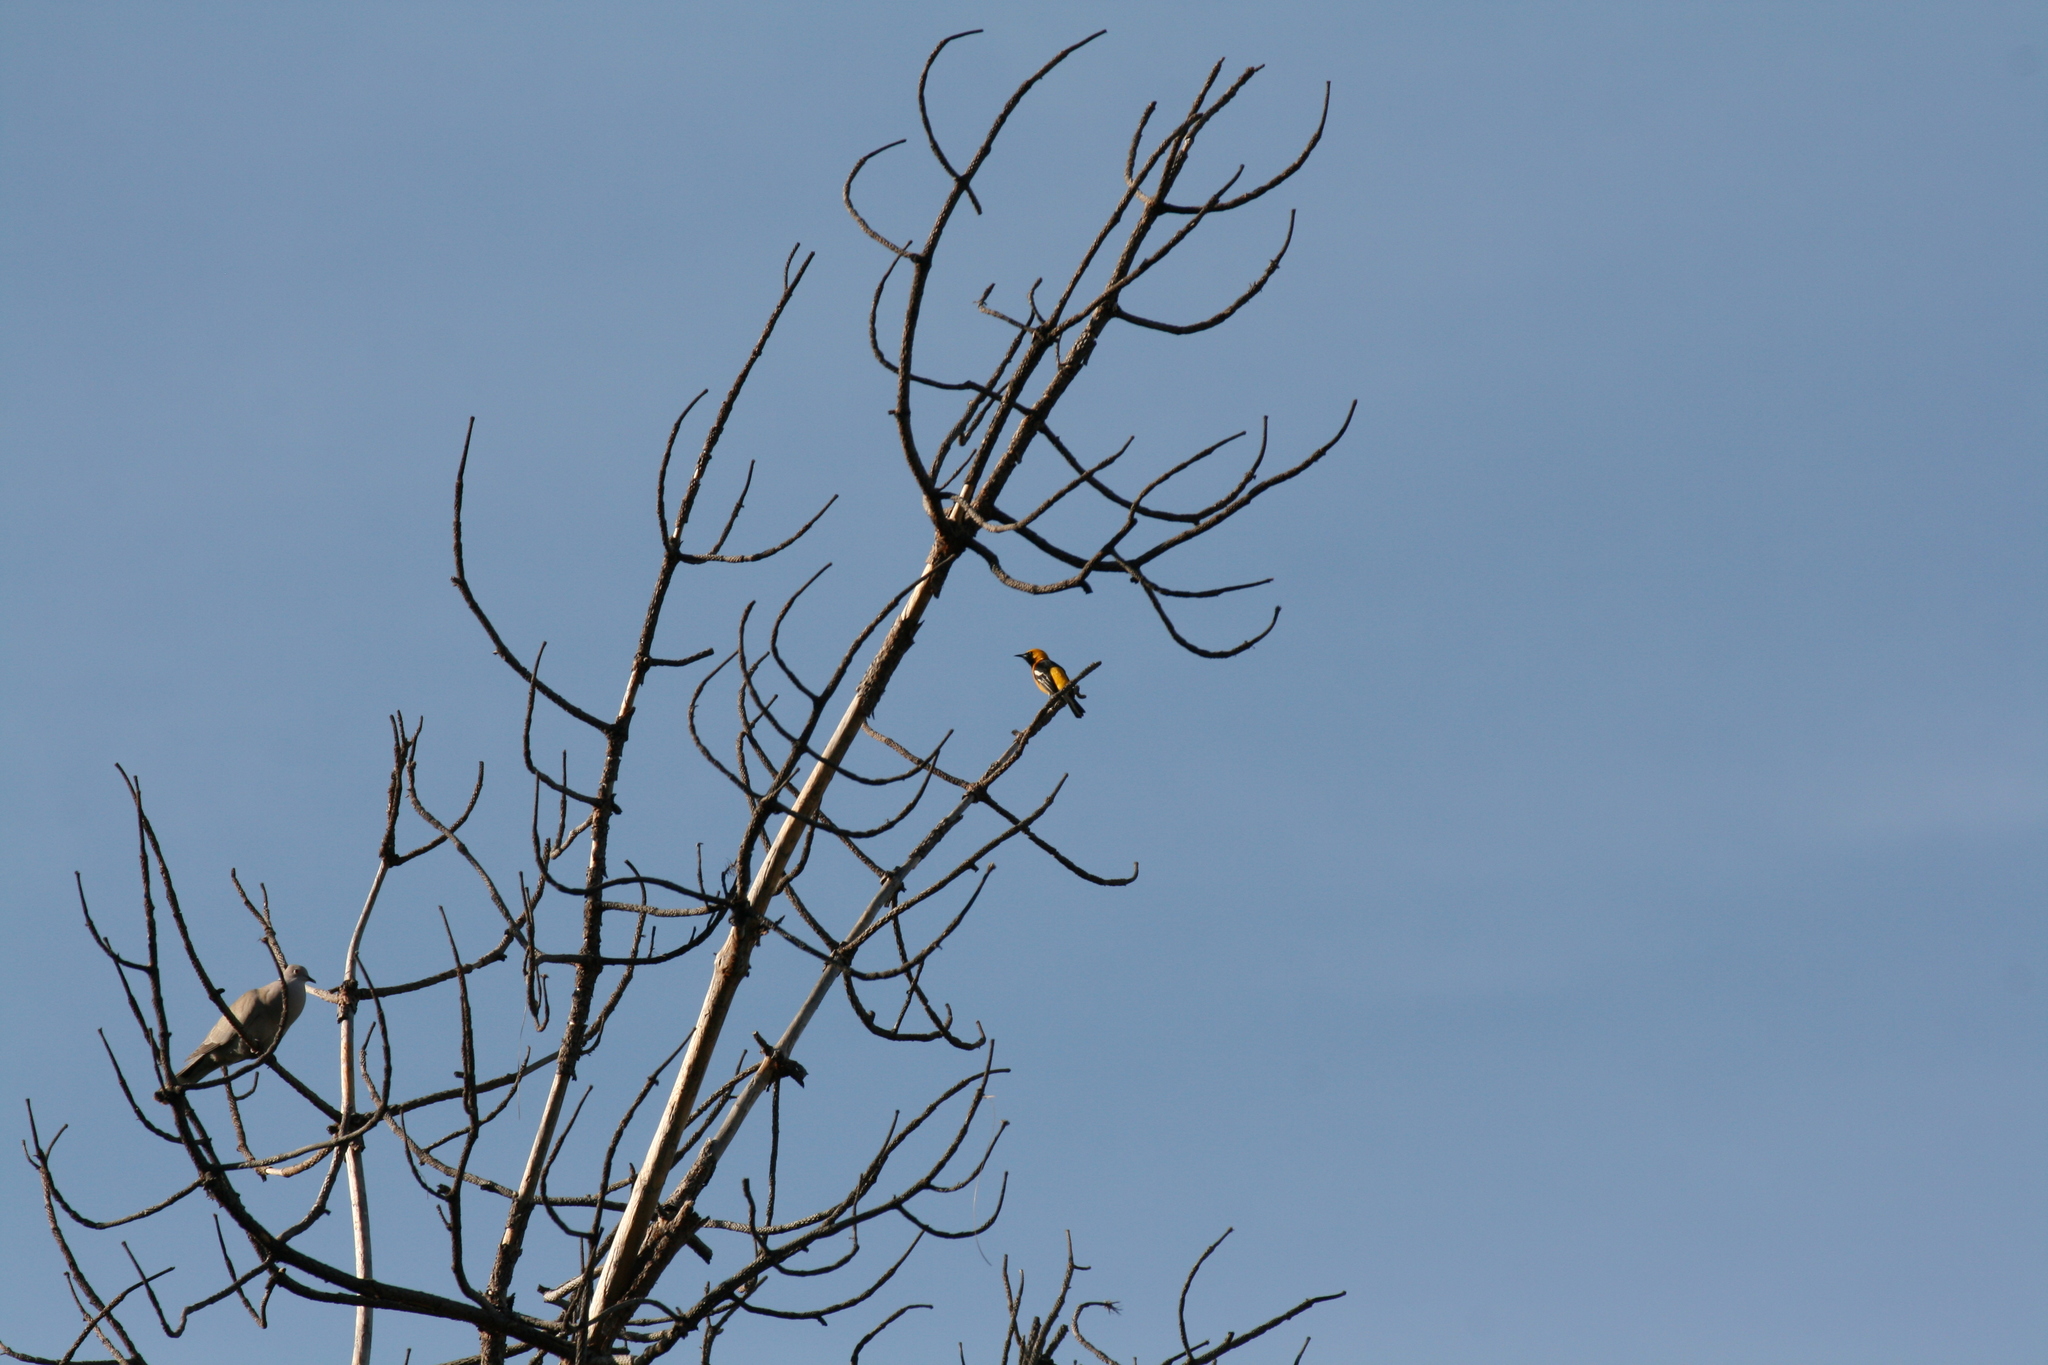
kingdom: Animalia
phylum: Chordata
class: Aves
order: Passeriformes
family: Icteridae
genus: Icterus
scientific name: Icterus cucullatus
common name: Hooded oriole
